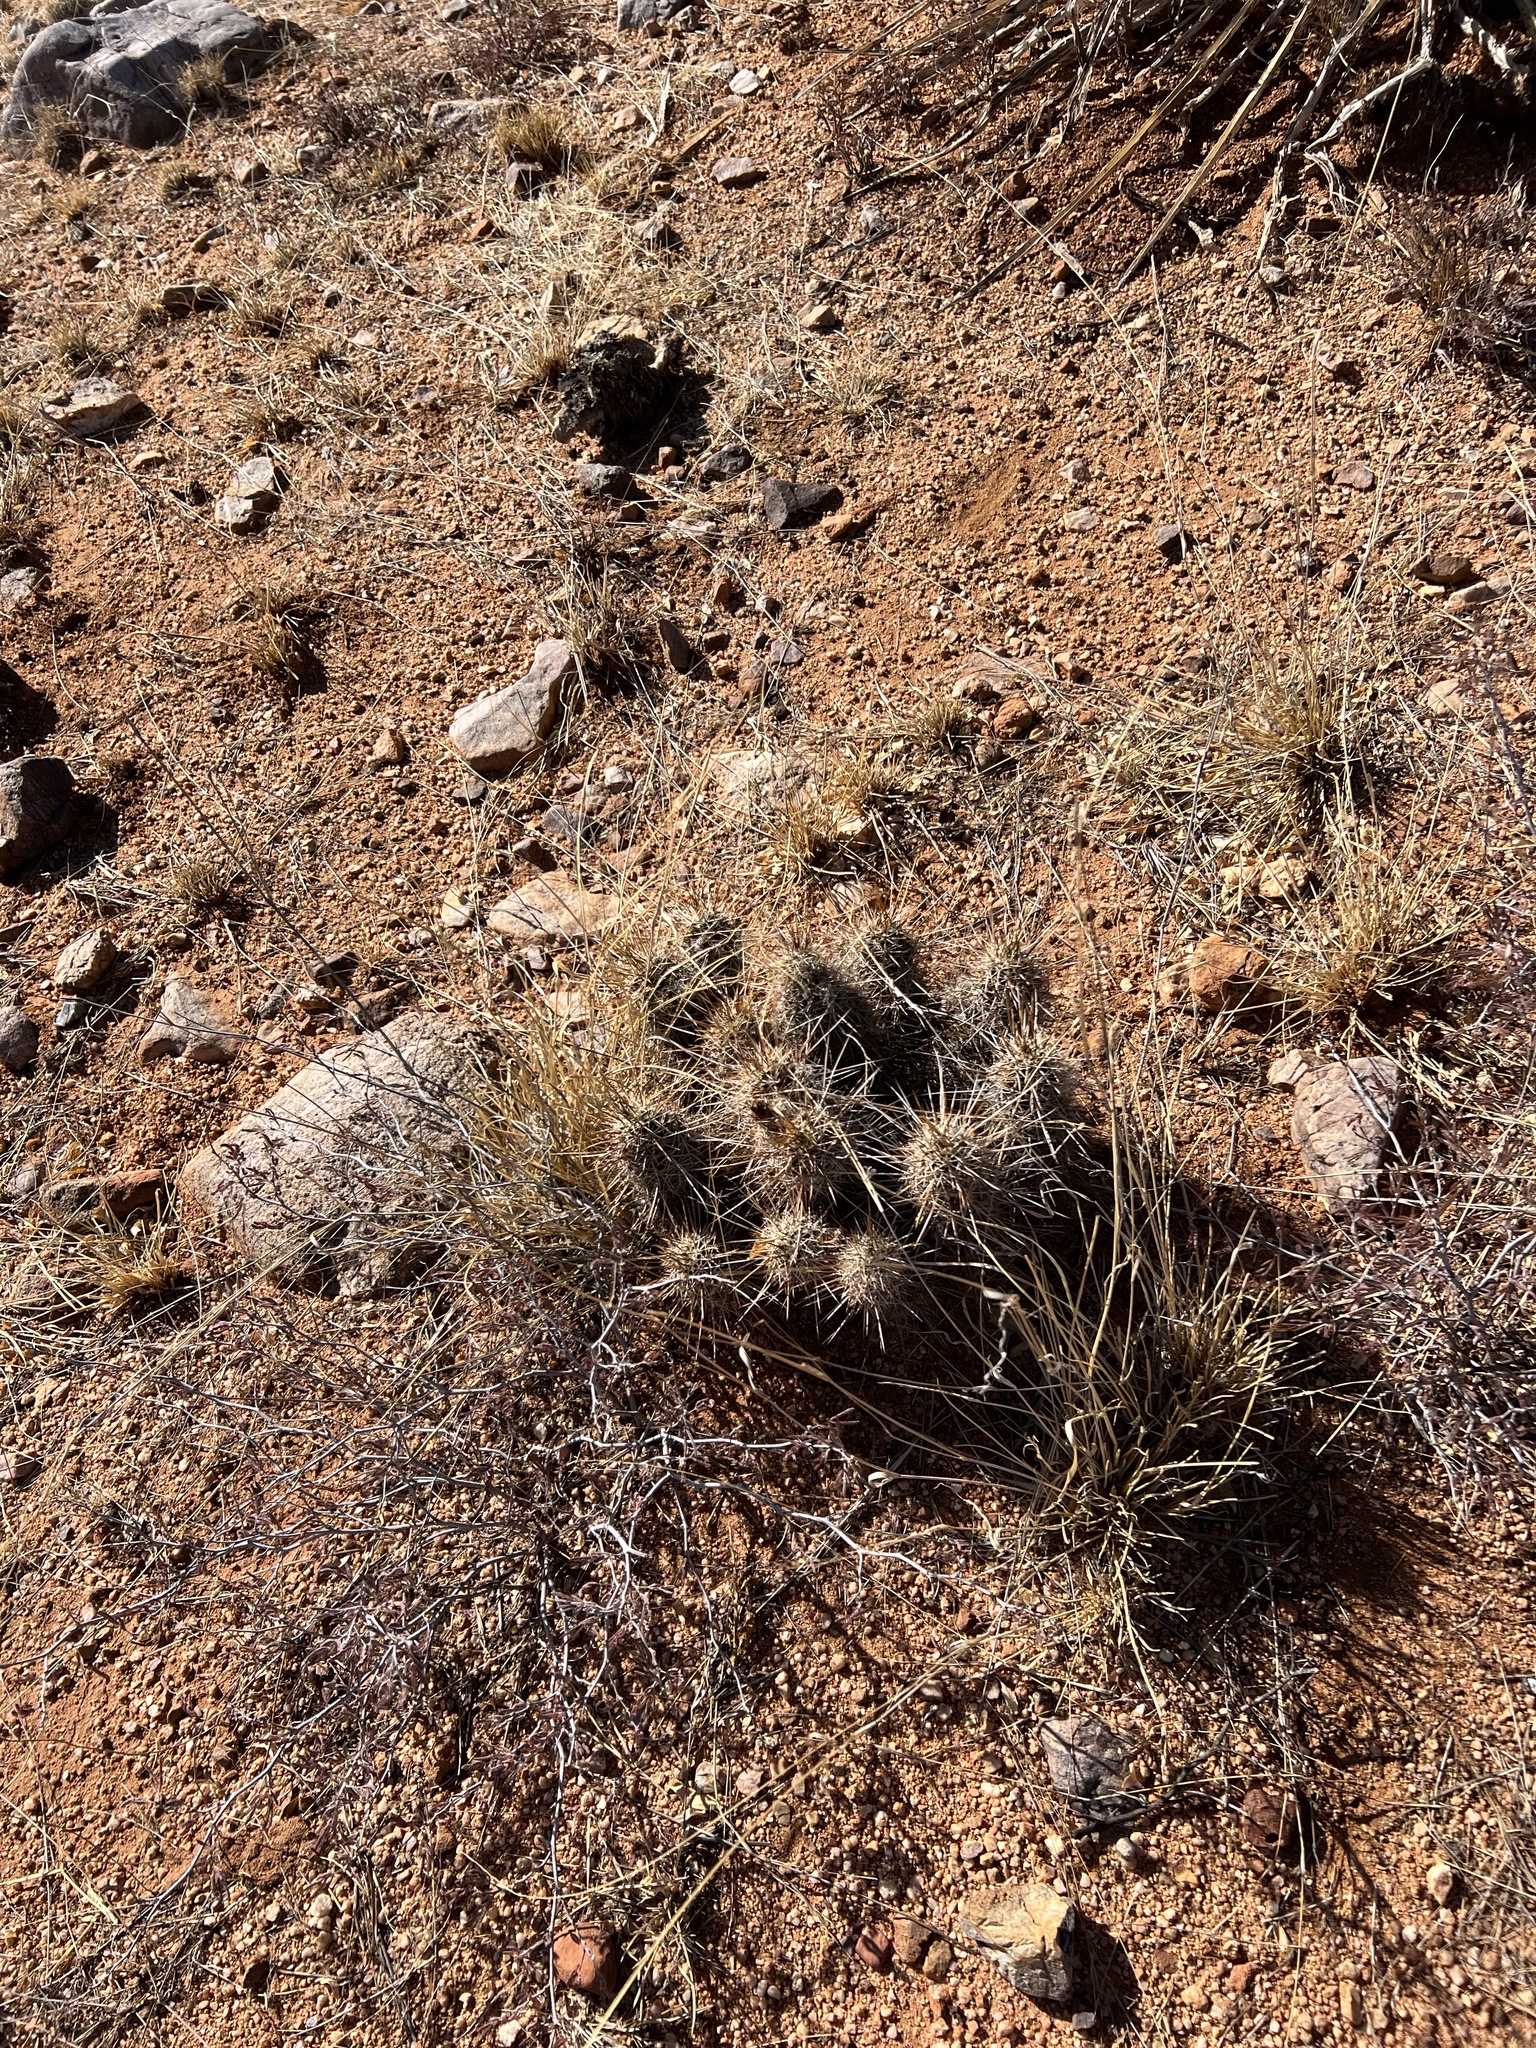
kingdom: Plantae
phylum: Tracheophyta
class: Magnoliopsida
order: Caryophyllales
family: Cactaceae
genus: Echinocereus
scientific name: Echinocereus fasciculatus
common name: Bundle hedgehog
